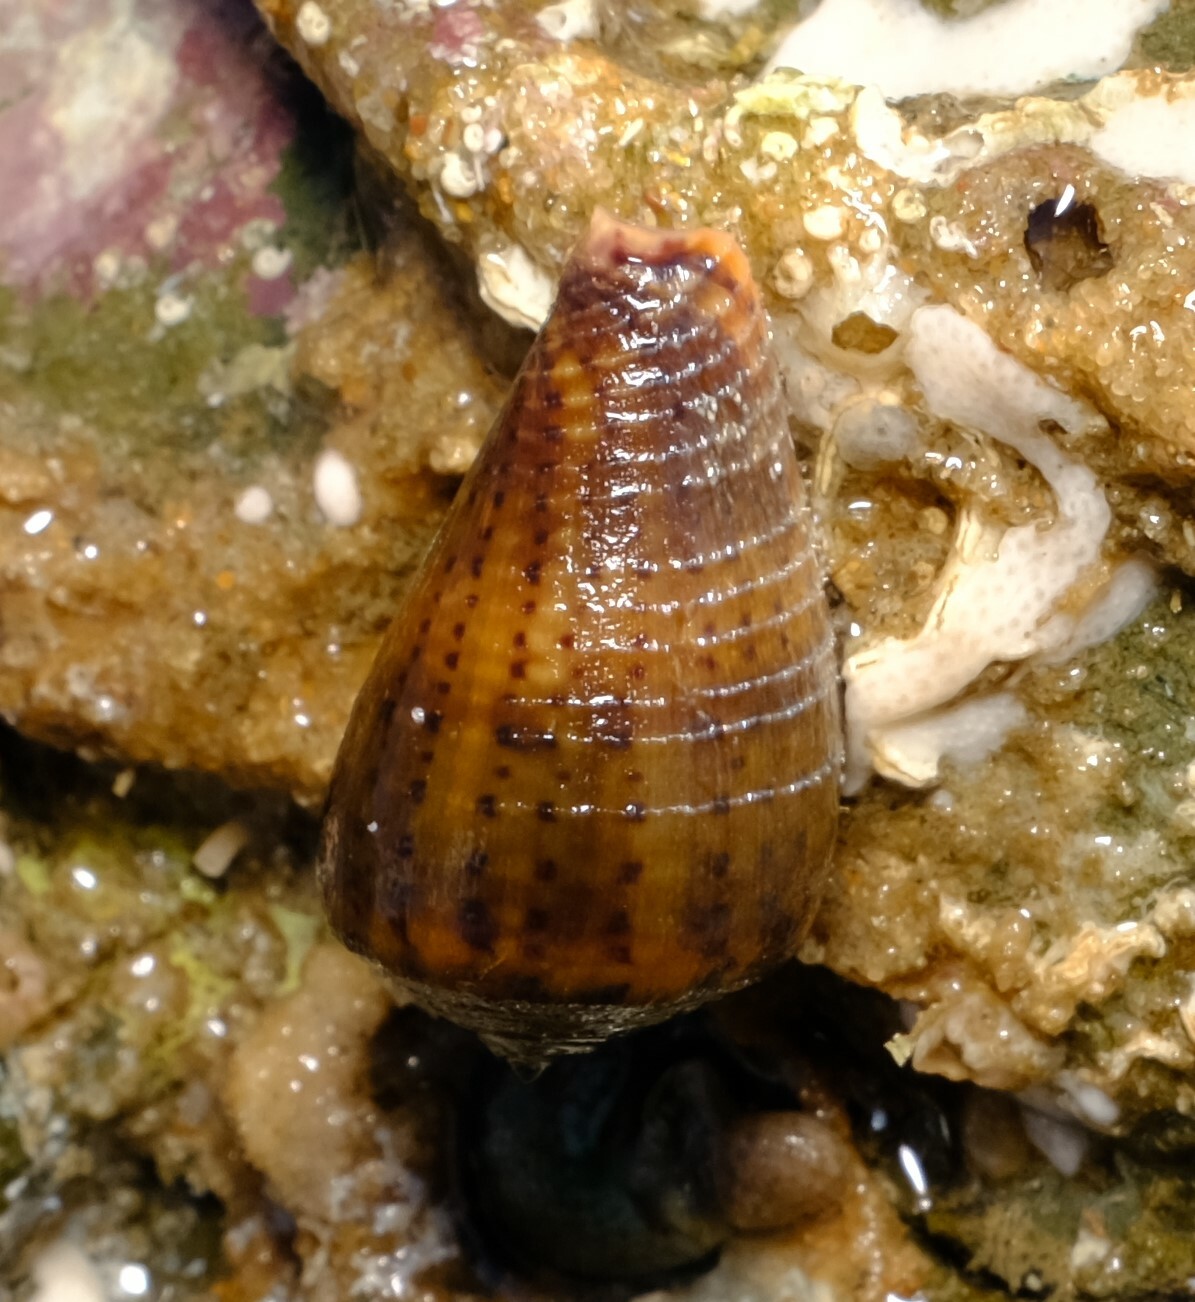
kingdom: Animalia
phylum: Mollusca
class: Gastropoda
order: Neogastropoda
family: Conidae
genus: Conus
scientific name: Conus aplustre
